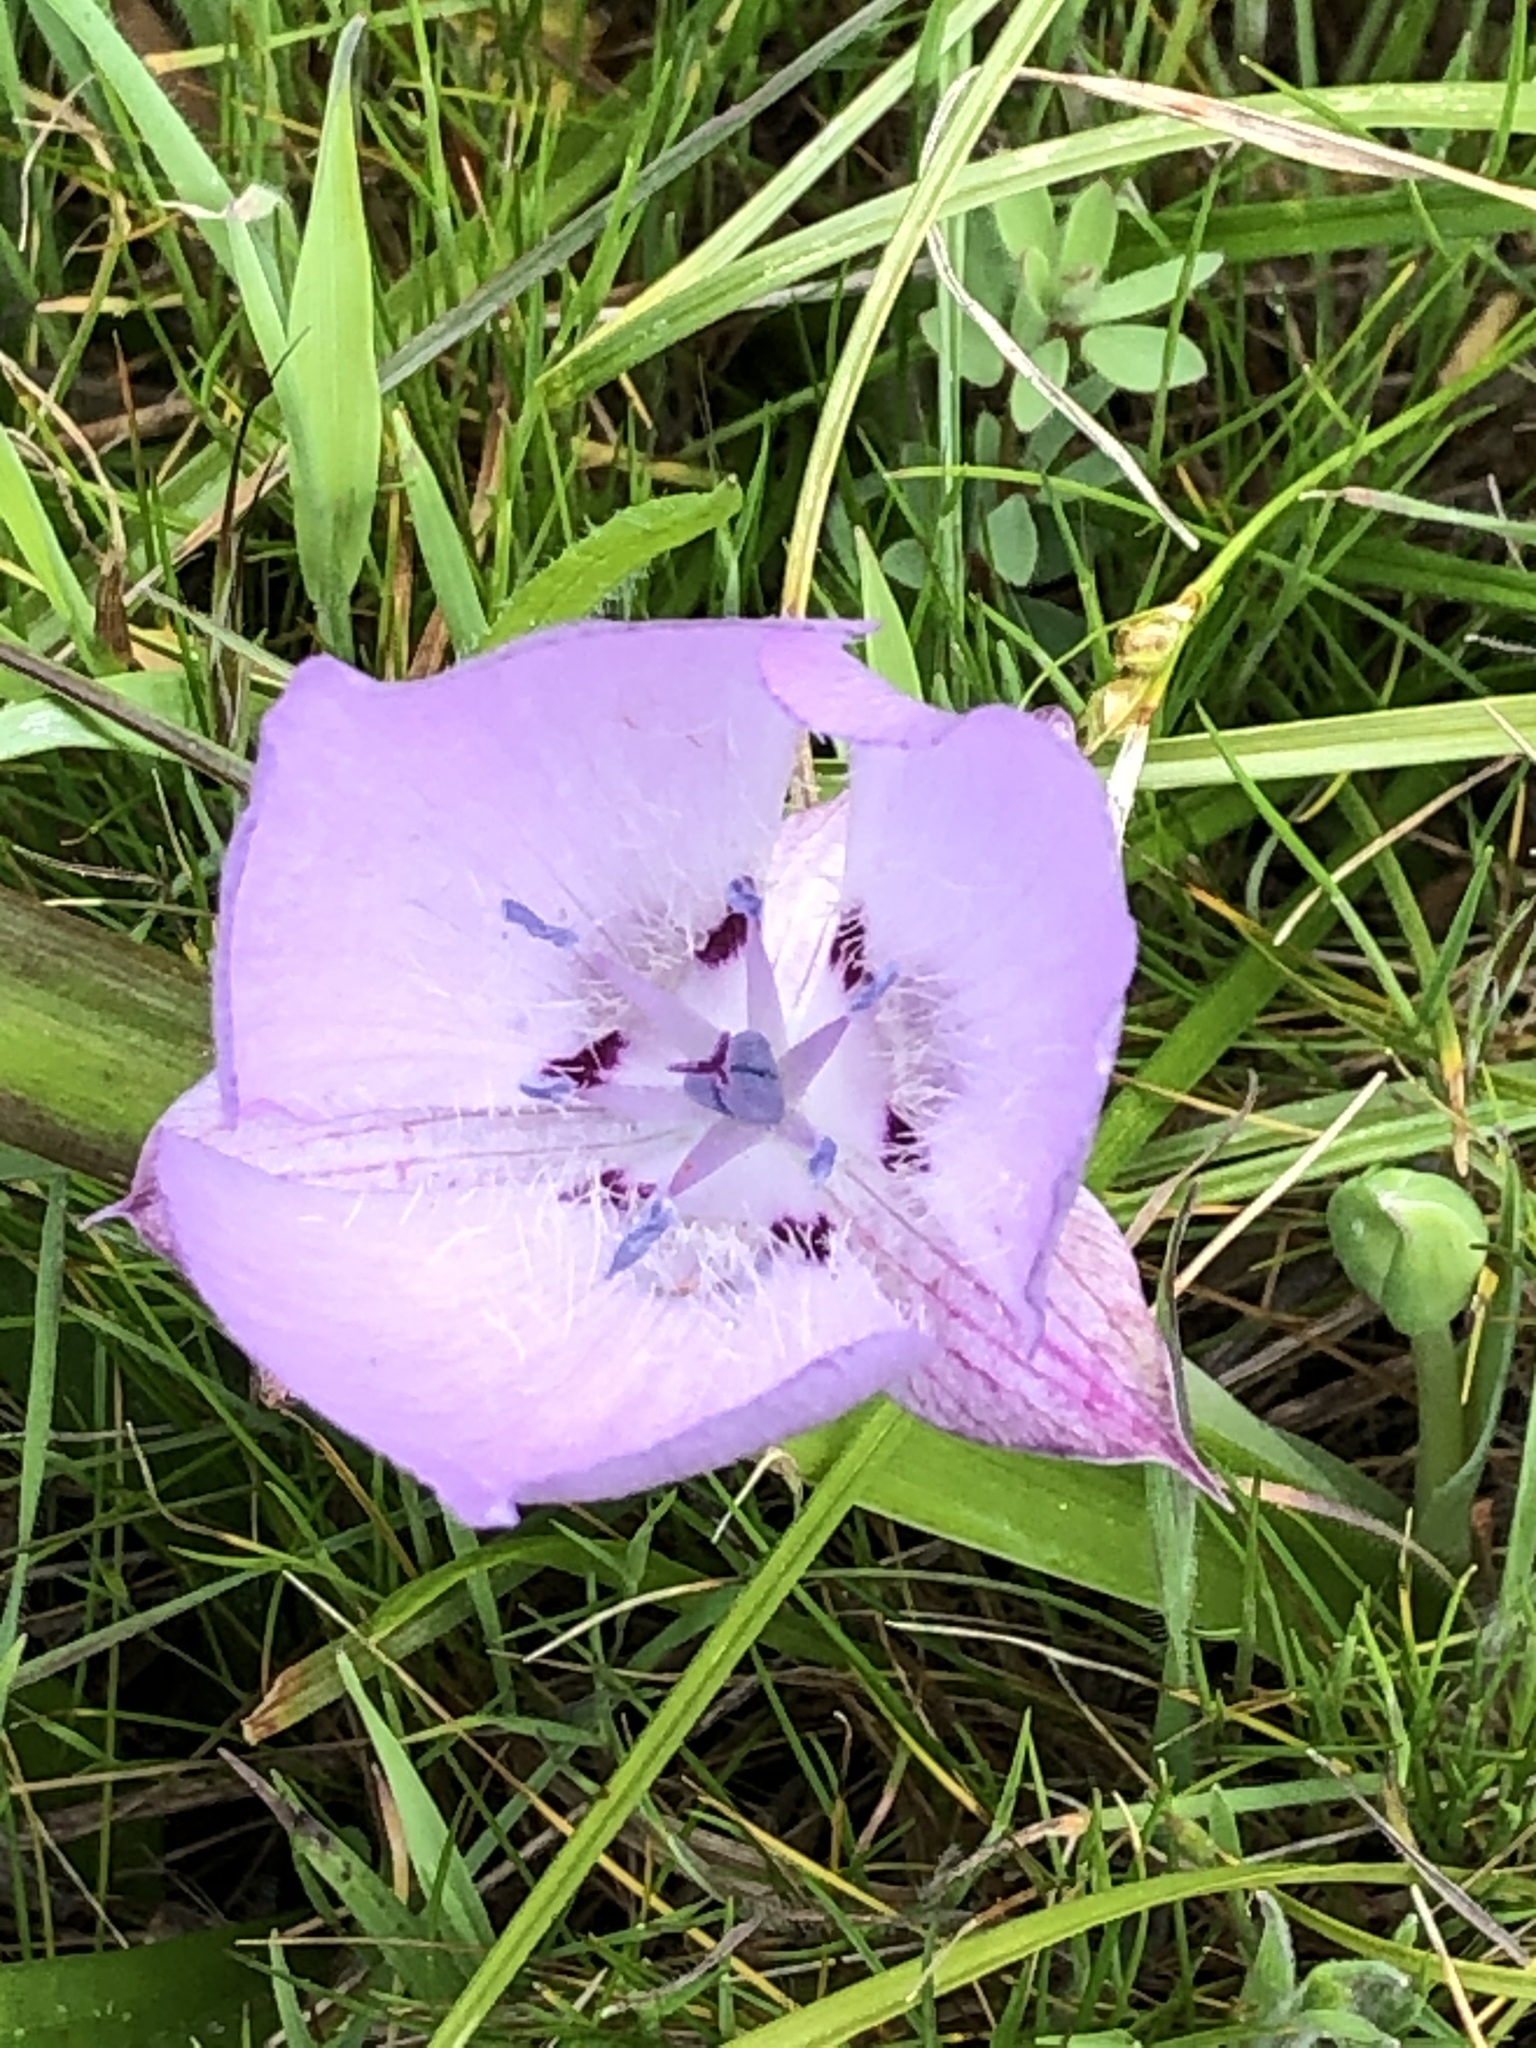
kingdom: Plantae
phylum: Tracheophyta
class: Liliopsida
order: Liliales
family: Liliaceae
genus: Calochortus
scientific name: Calochortus uniflorus
